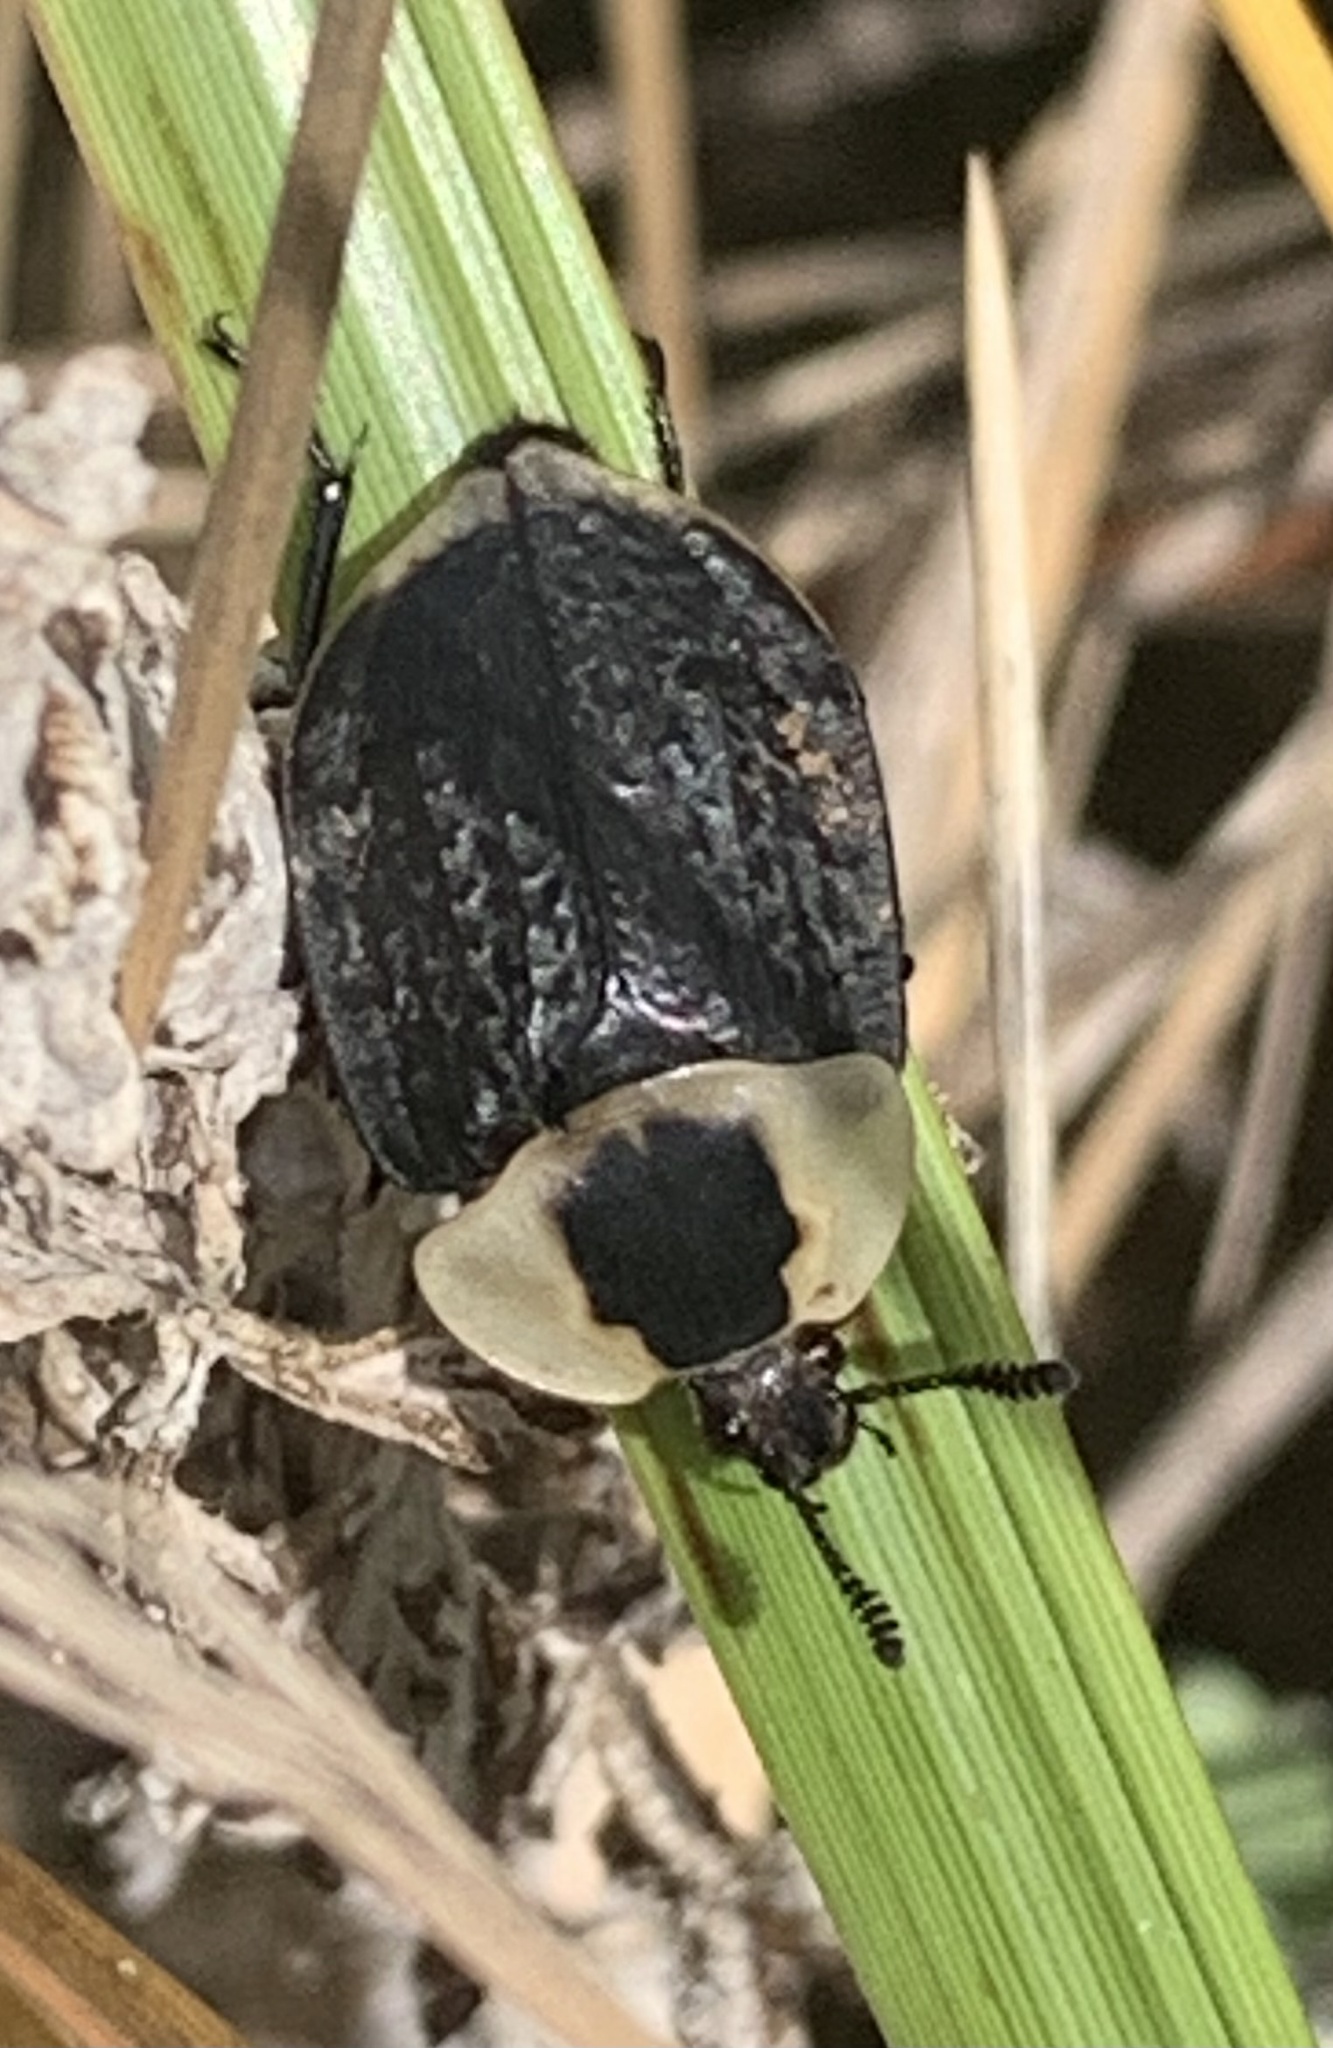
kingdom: Animalia
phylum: Arthropoda
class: Insecta
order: Coleoptera
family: Staphylinidae
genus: Necrophila
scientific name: Necrophila americana
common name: American carrion beetle
